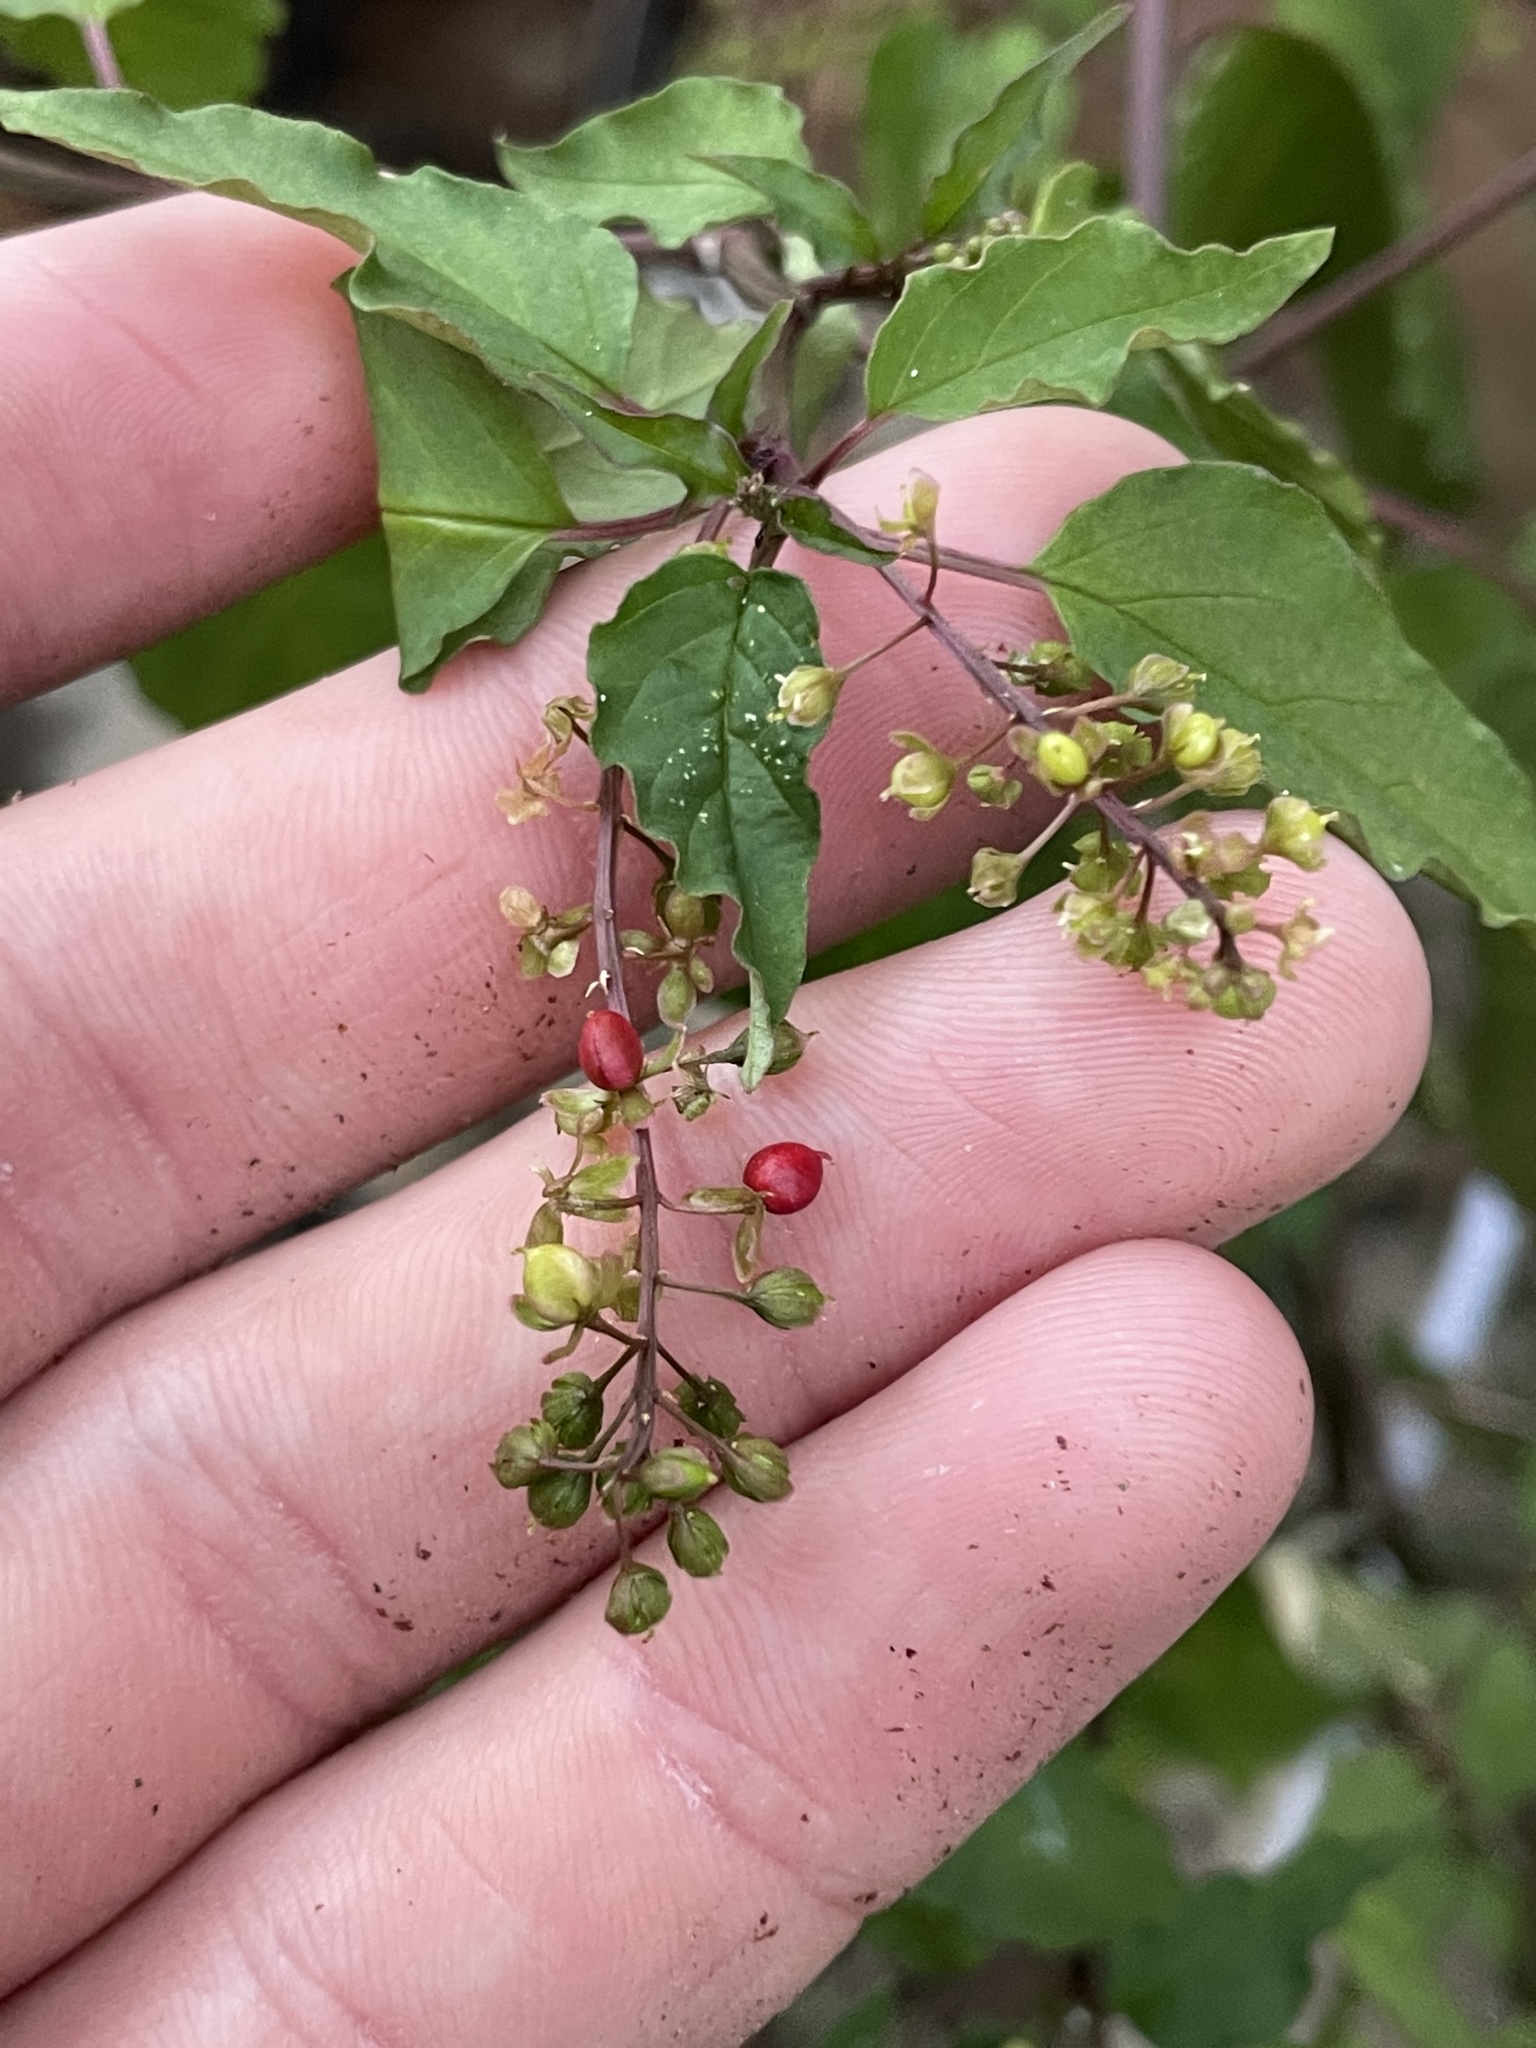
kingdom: Plantae
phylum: Tracheophyta
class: Magnoliopsida
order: Caryophyllales
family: Phytolaccaceae
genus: Rivina
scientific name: Rivina humilis
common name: Rougeplant
